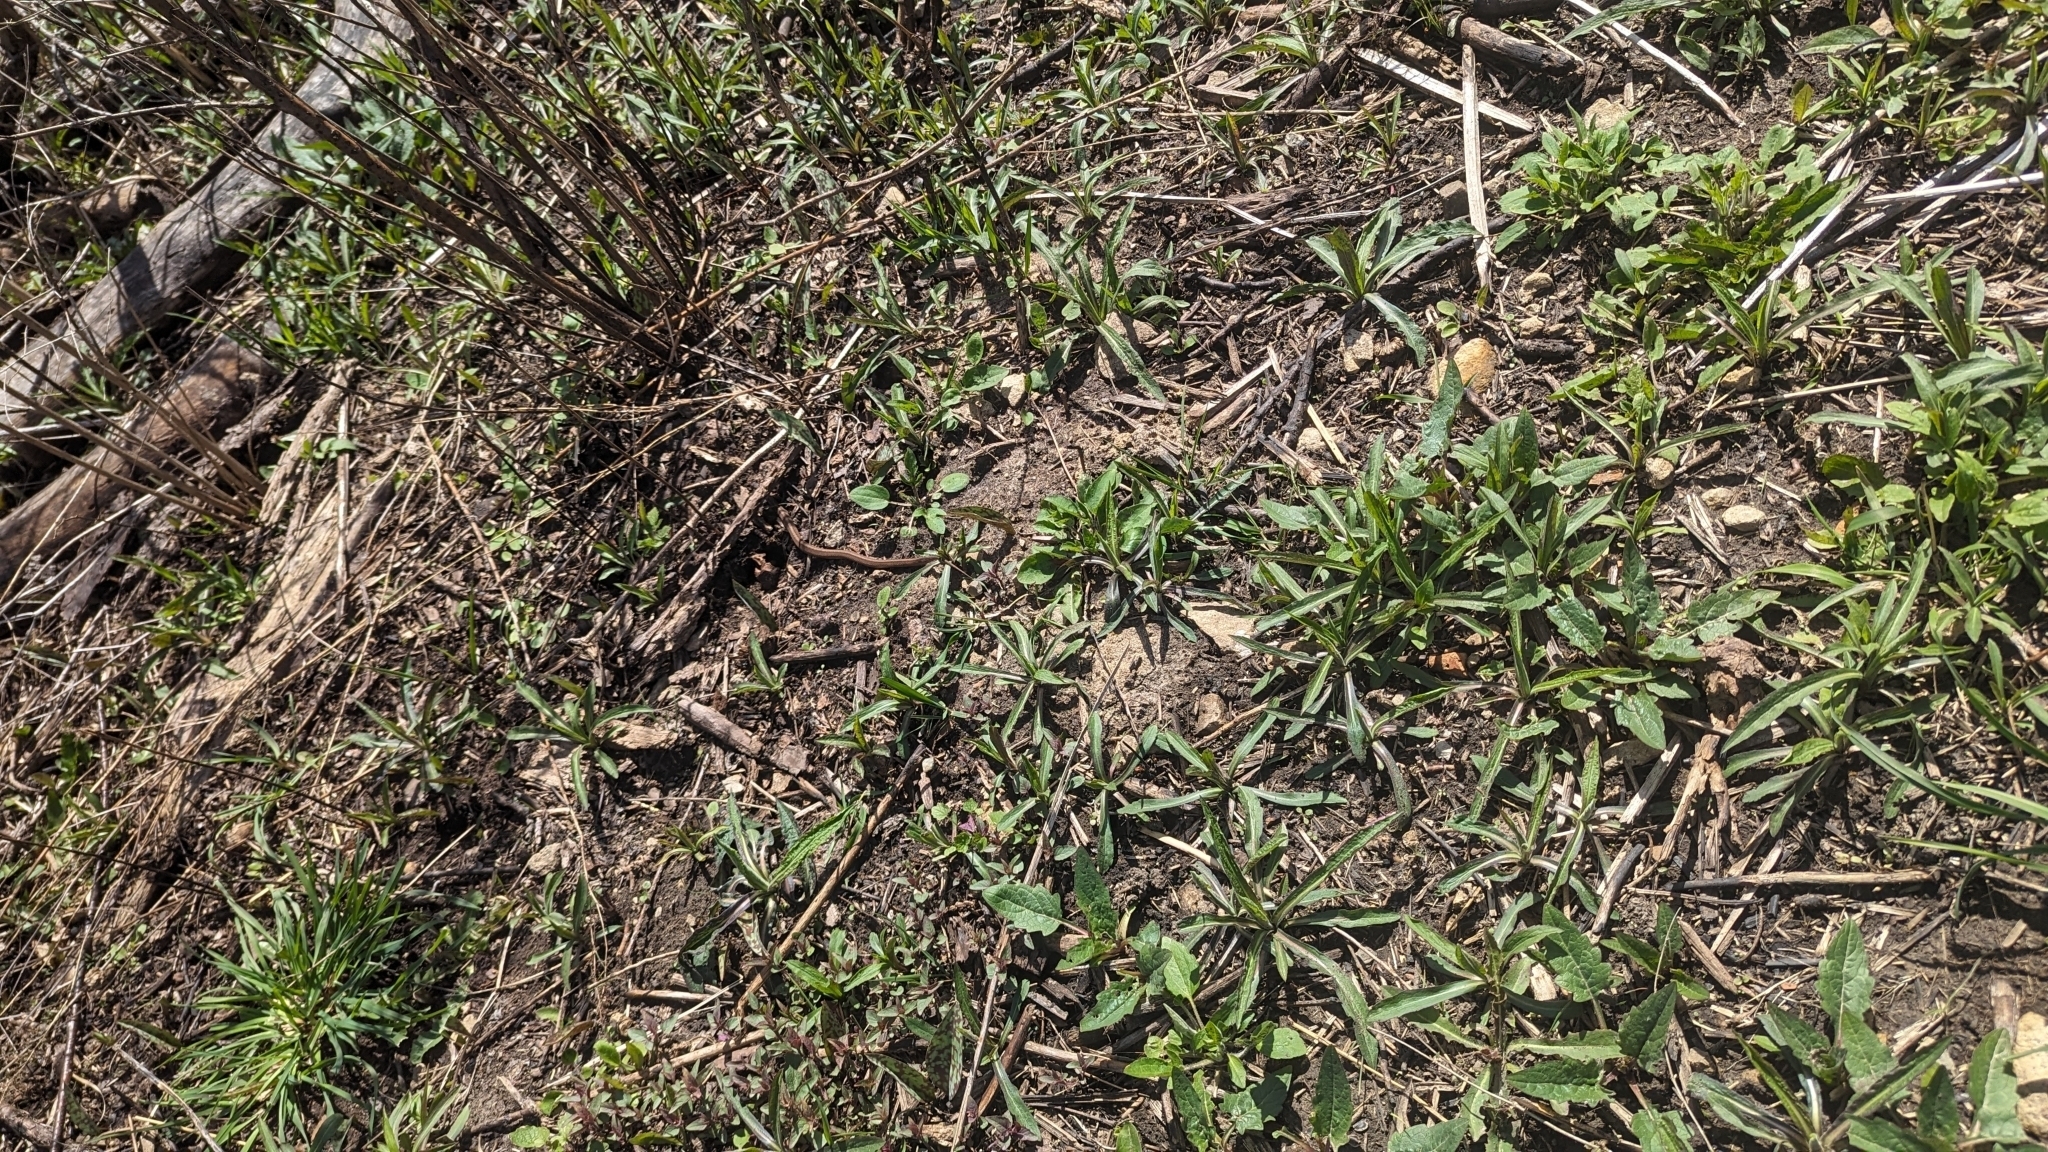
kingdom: Animalia
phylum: Chordata
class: Squamata
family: Colubridae
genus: Storeria
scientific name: Storeria dekayi
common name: (dekay’s) brown snake
